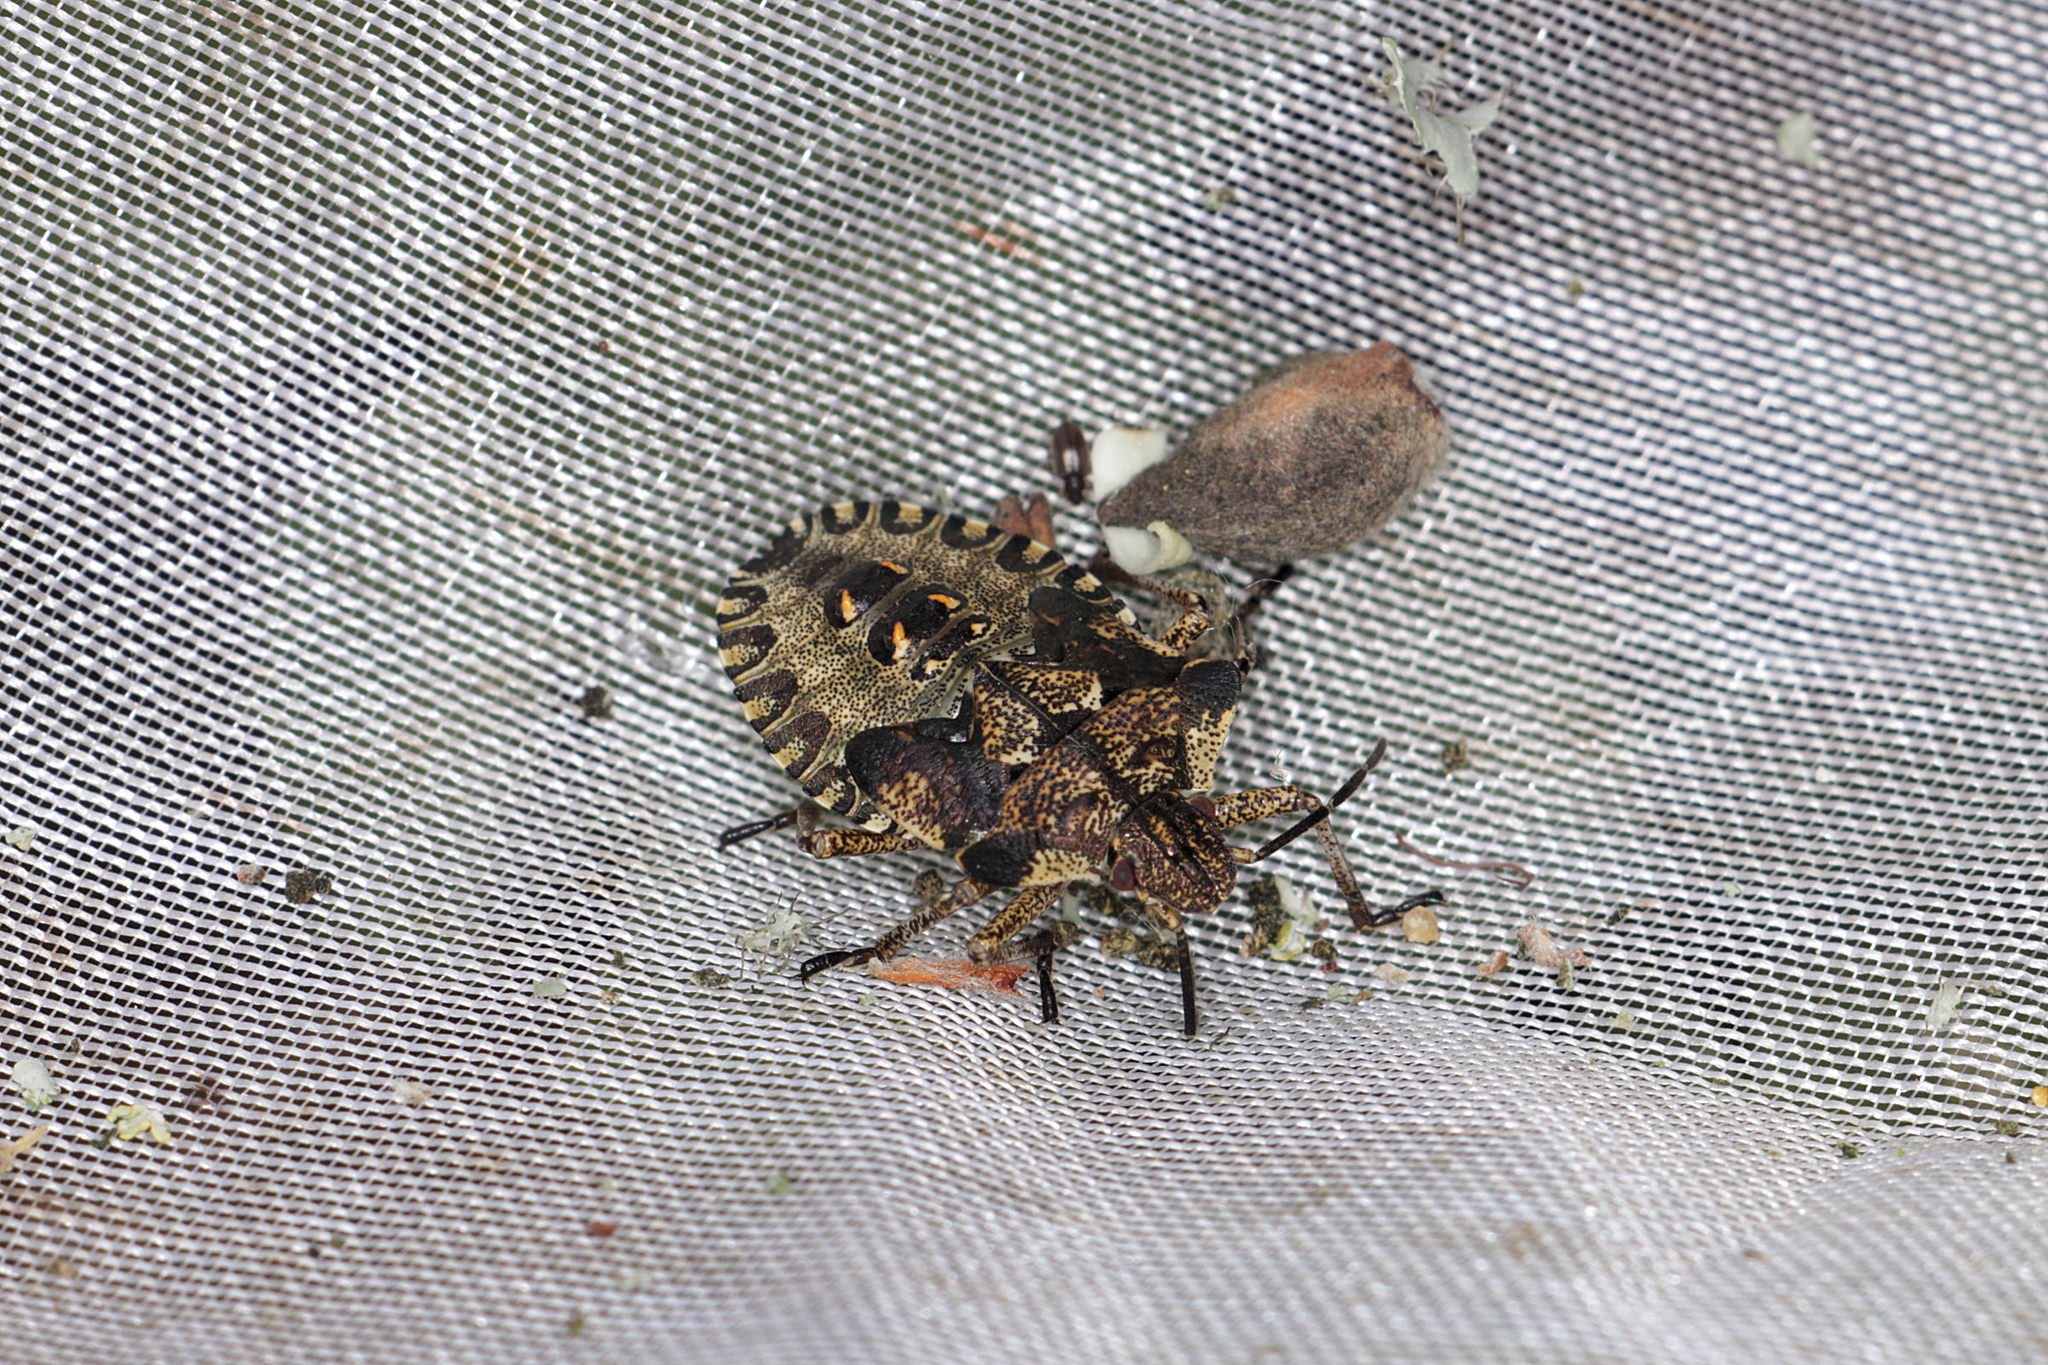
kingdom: Animalia
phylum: Arthropoda
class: Insecta
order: Hemiptera
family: Pentatomidae
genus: Pentatoma
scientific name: Pentatoma rufipes
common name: Forest bug
